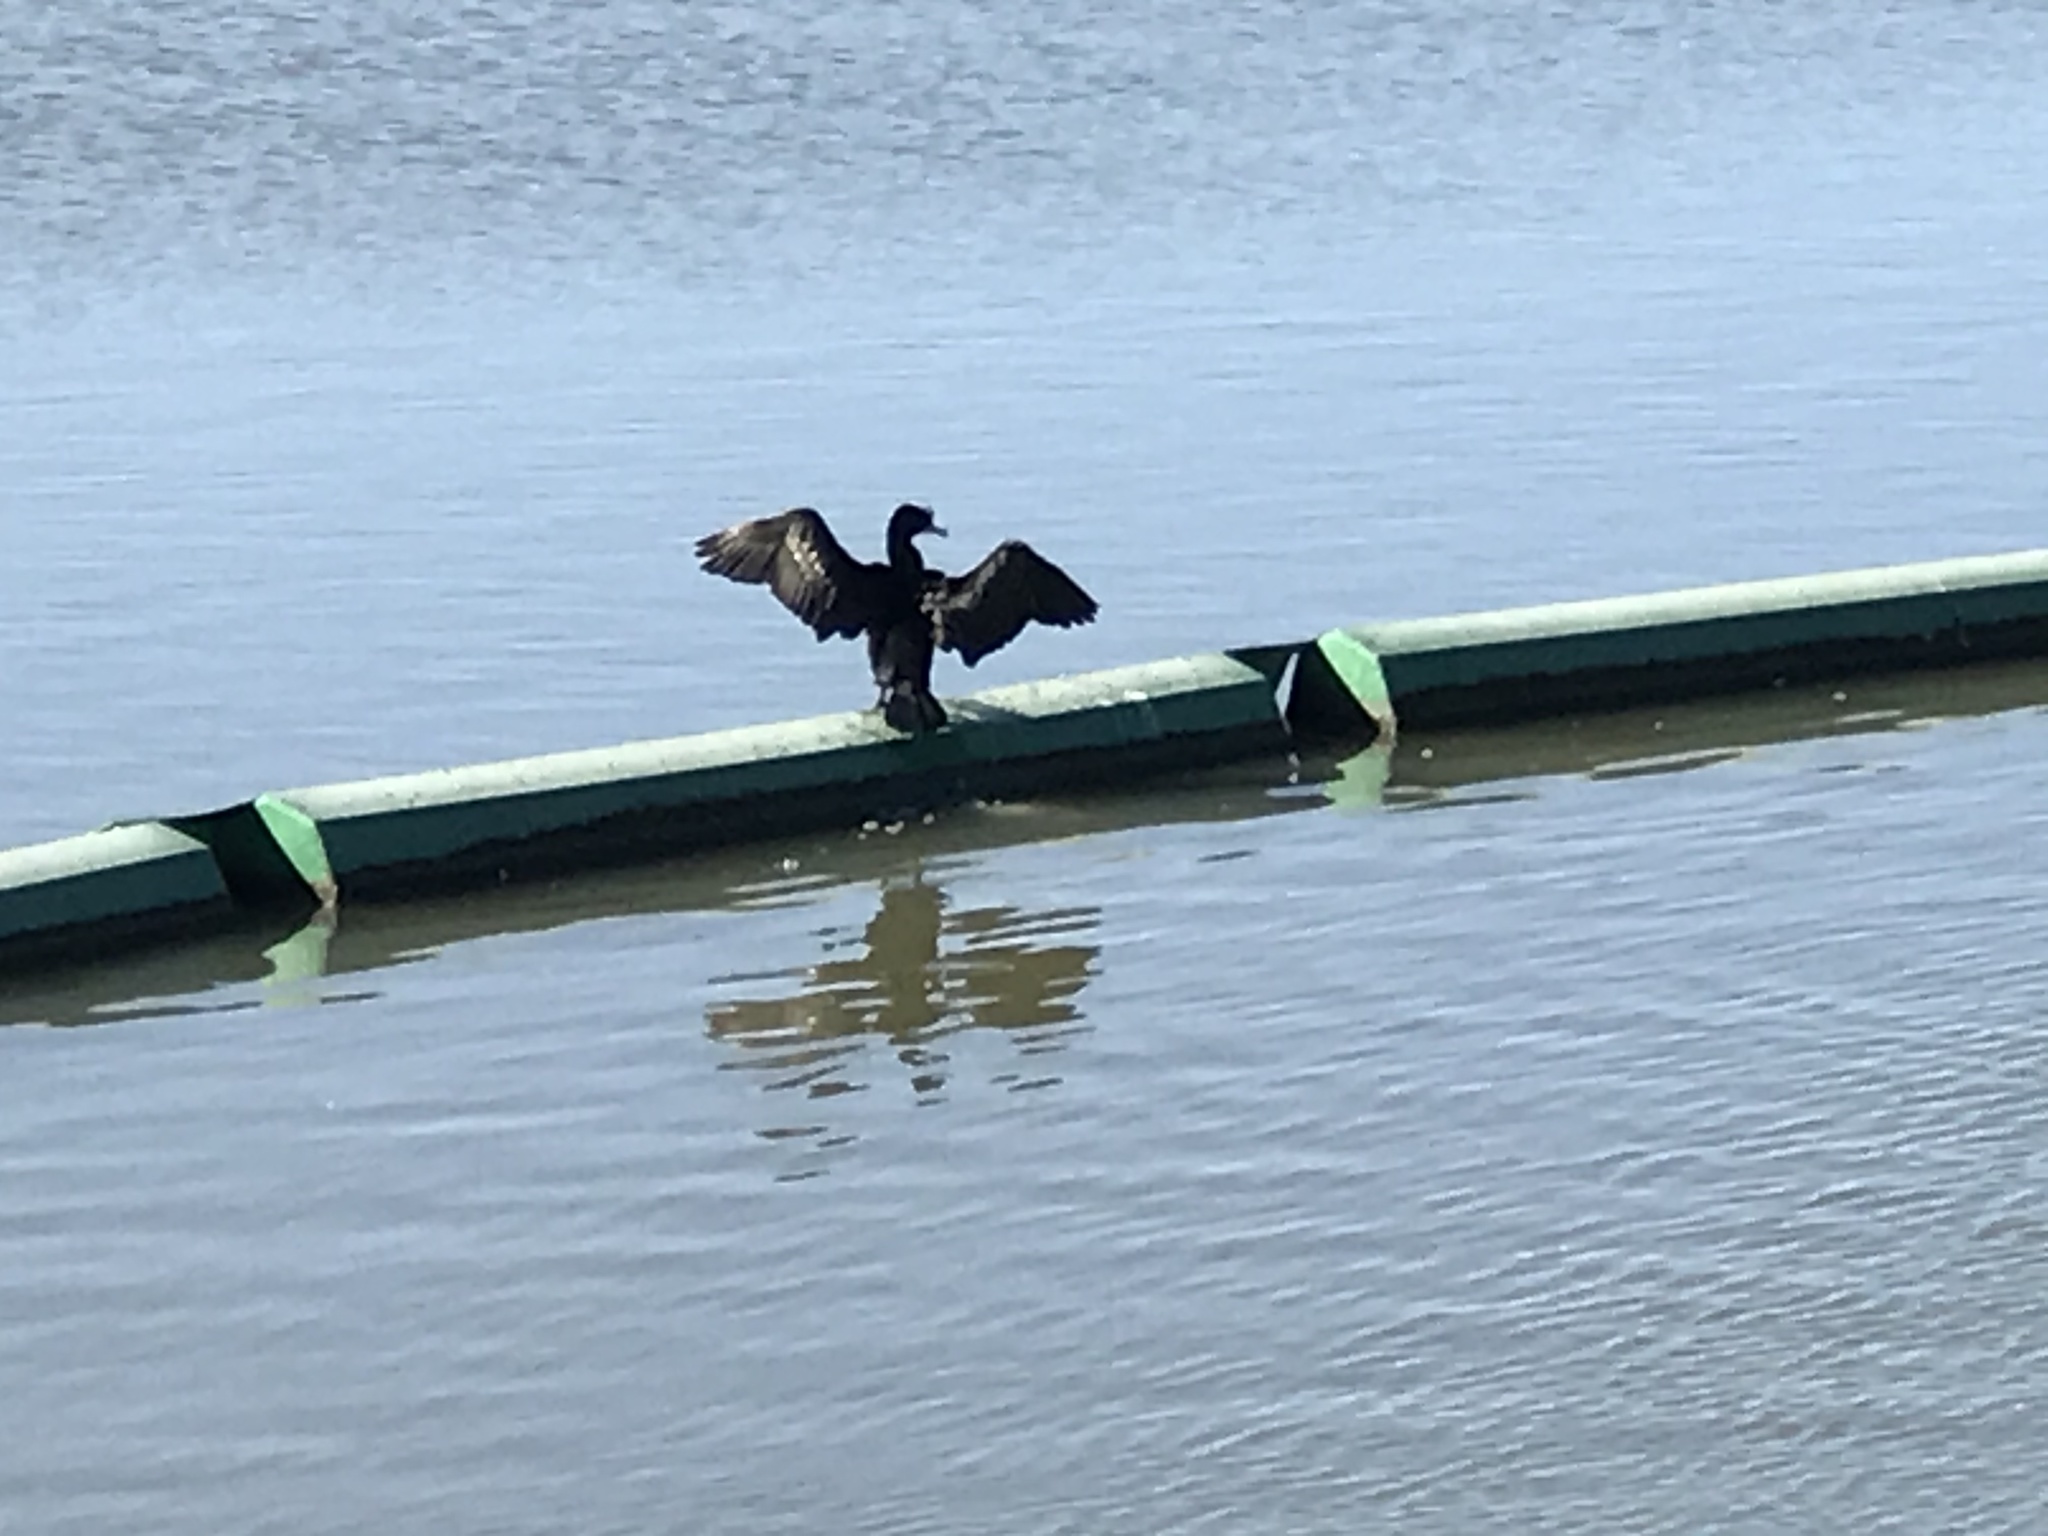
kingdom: Animalia
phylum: Chordata
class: Aves
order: Suliformes
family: Phalacrocoracidae
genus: Phalacrocorax
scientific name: Phalacrocorax auritus
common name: Double-crested cormorant
